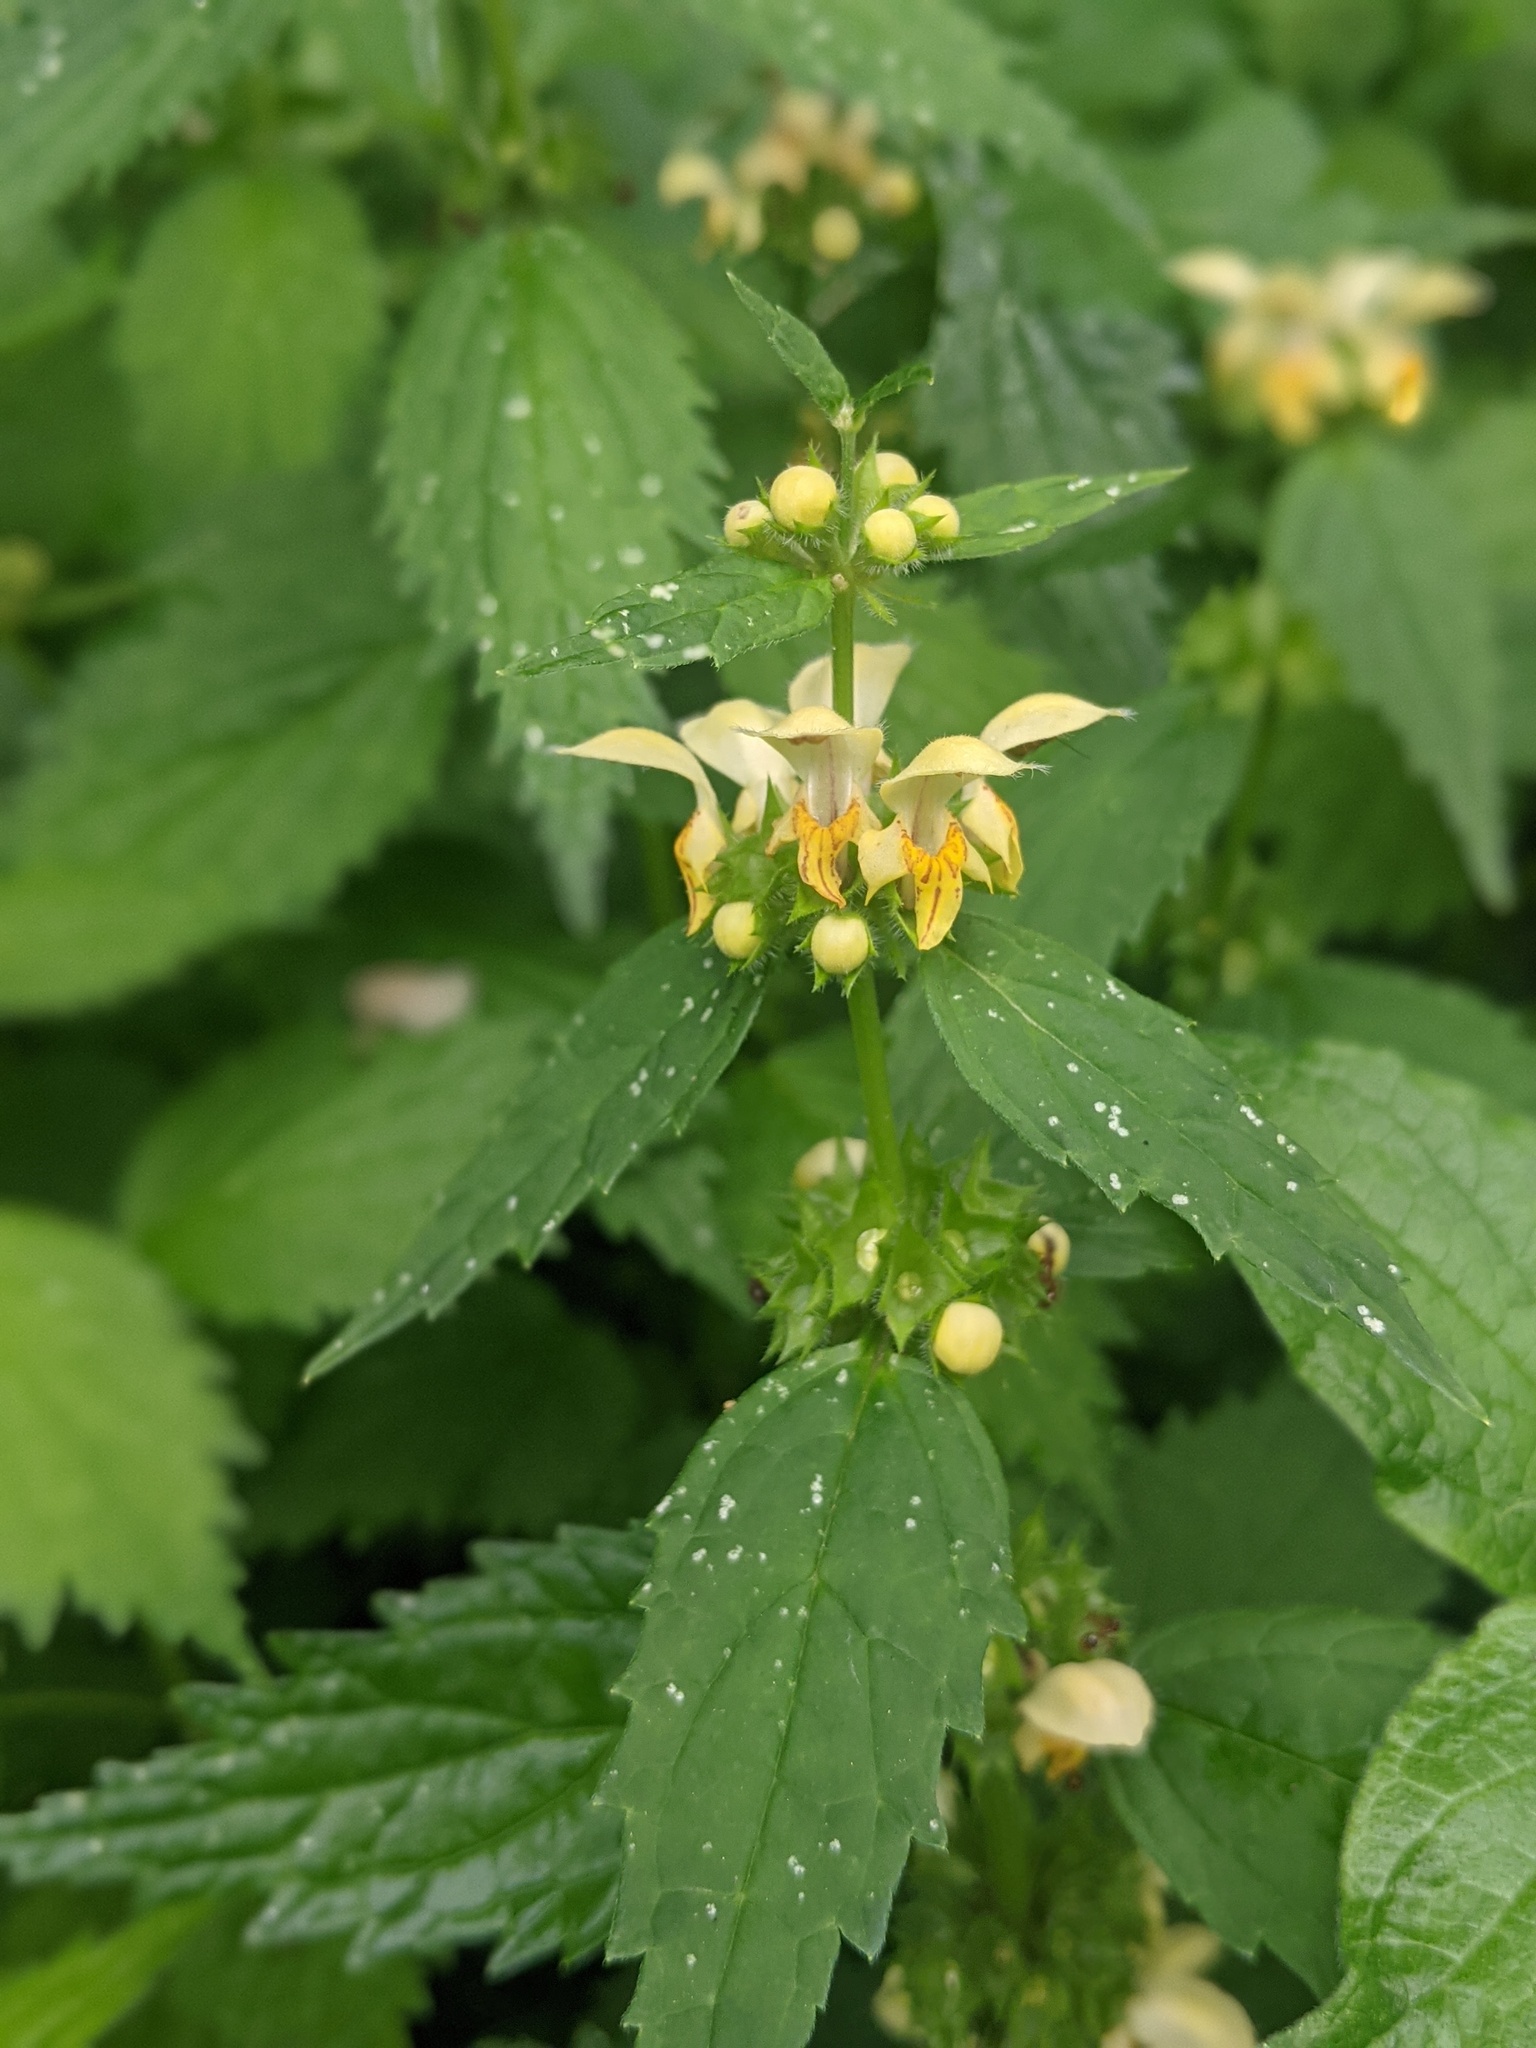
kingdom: Plantae
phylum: Tracheophyta
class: Magnoliopsida
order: Lamiales
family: Lamiaceae
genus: Lamium
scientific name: Lamium galeobdolon
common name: Yellow archangel
